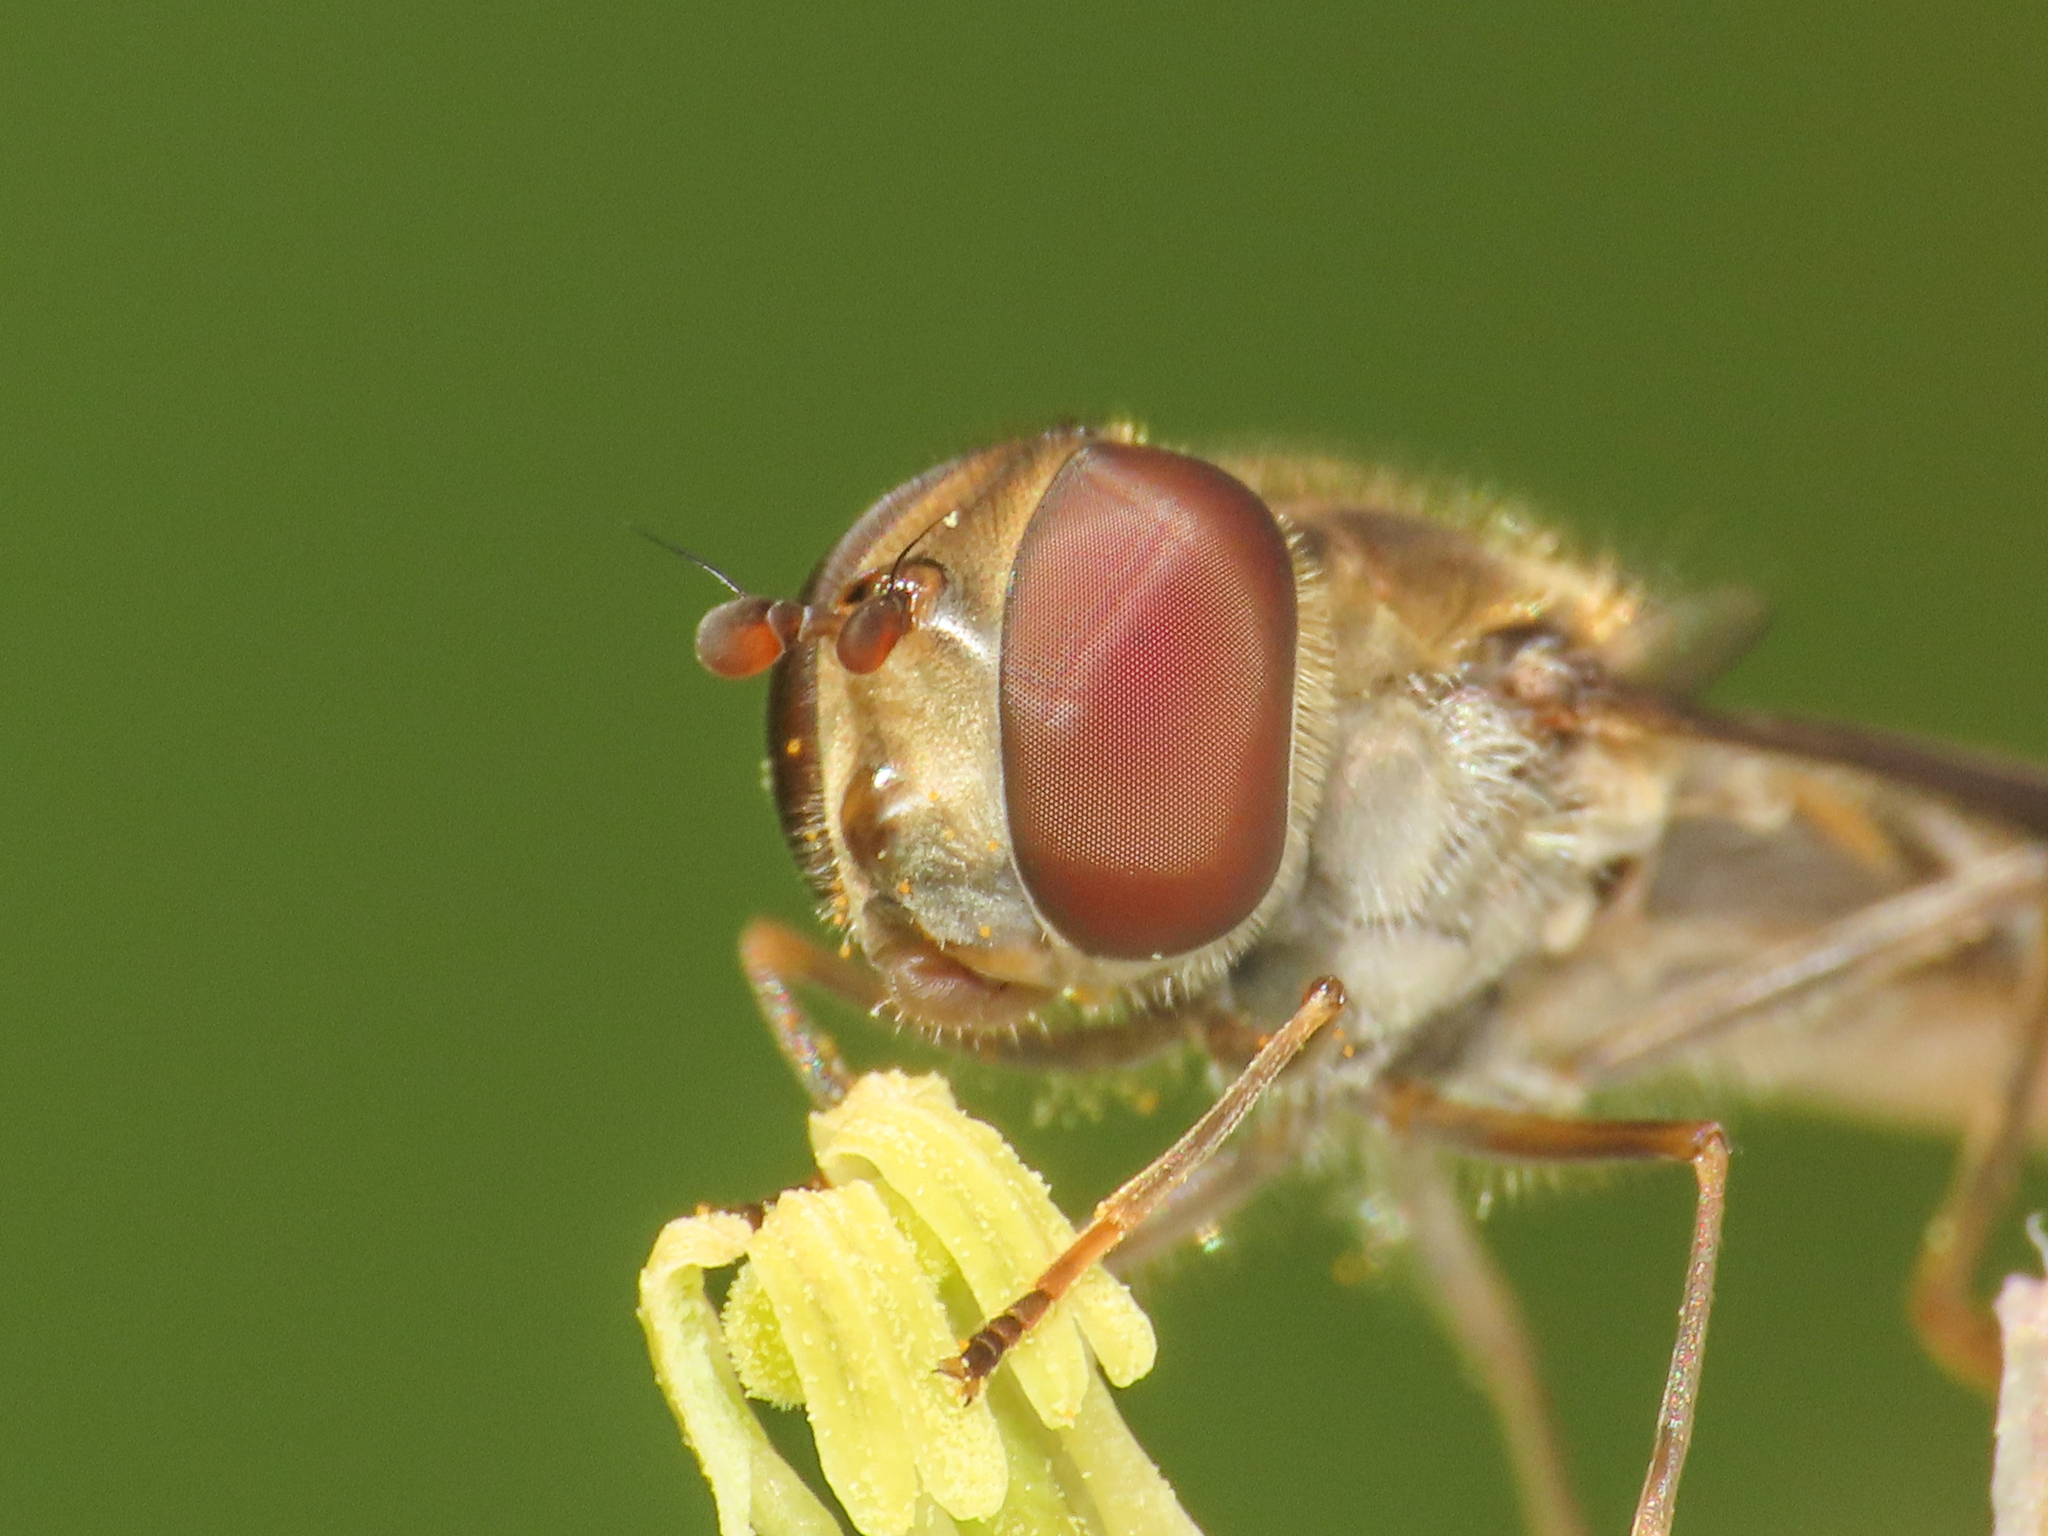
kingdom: Animalia
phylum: Arthropoda
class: Insecta
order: Diptera
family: Syrphidae
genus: Episyrphus
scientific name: Episyrphus balteatus
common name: Marmalade hoverfly
